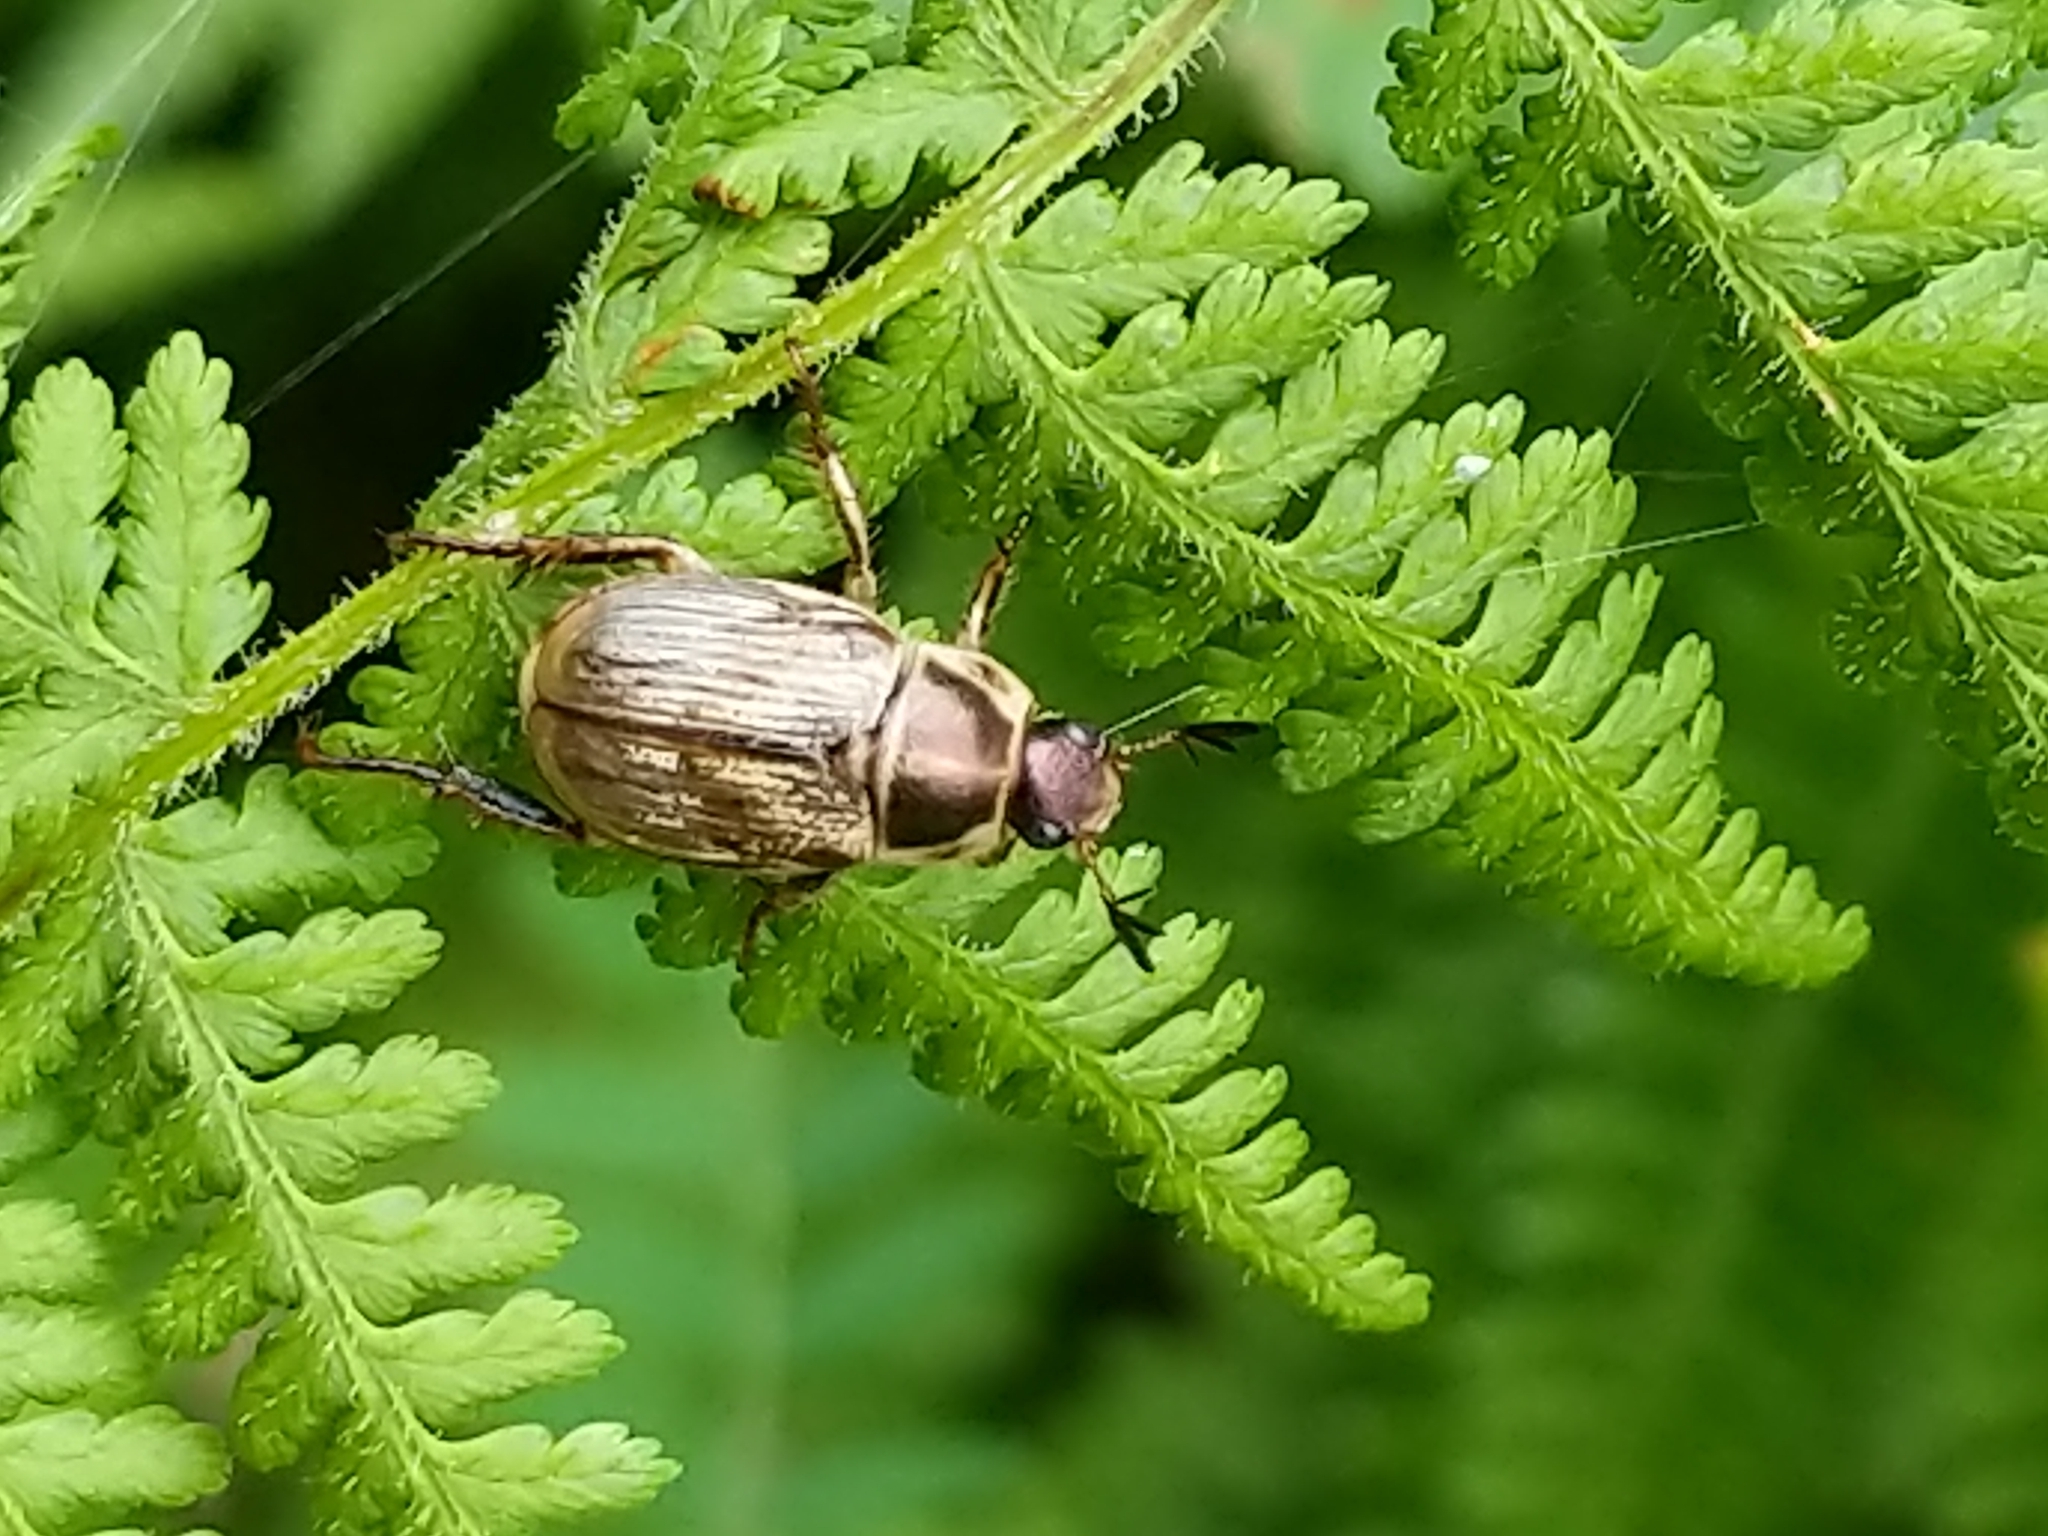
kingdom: Animalia
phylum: Arthropoda
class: Insecta
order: Coleoptera
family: Scarabaeidae
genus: Exomala
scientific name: Exomala orientalis
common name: Oriental beetle
